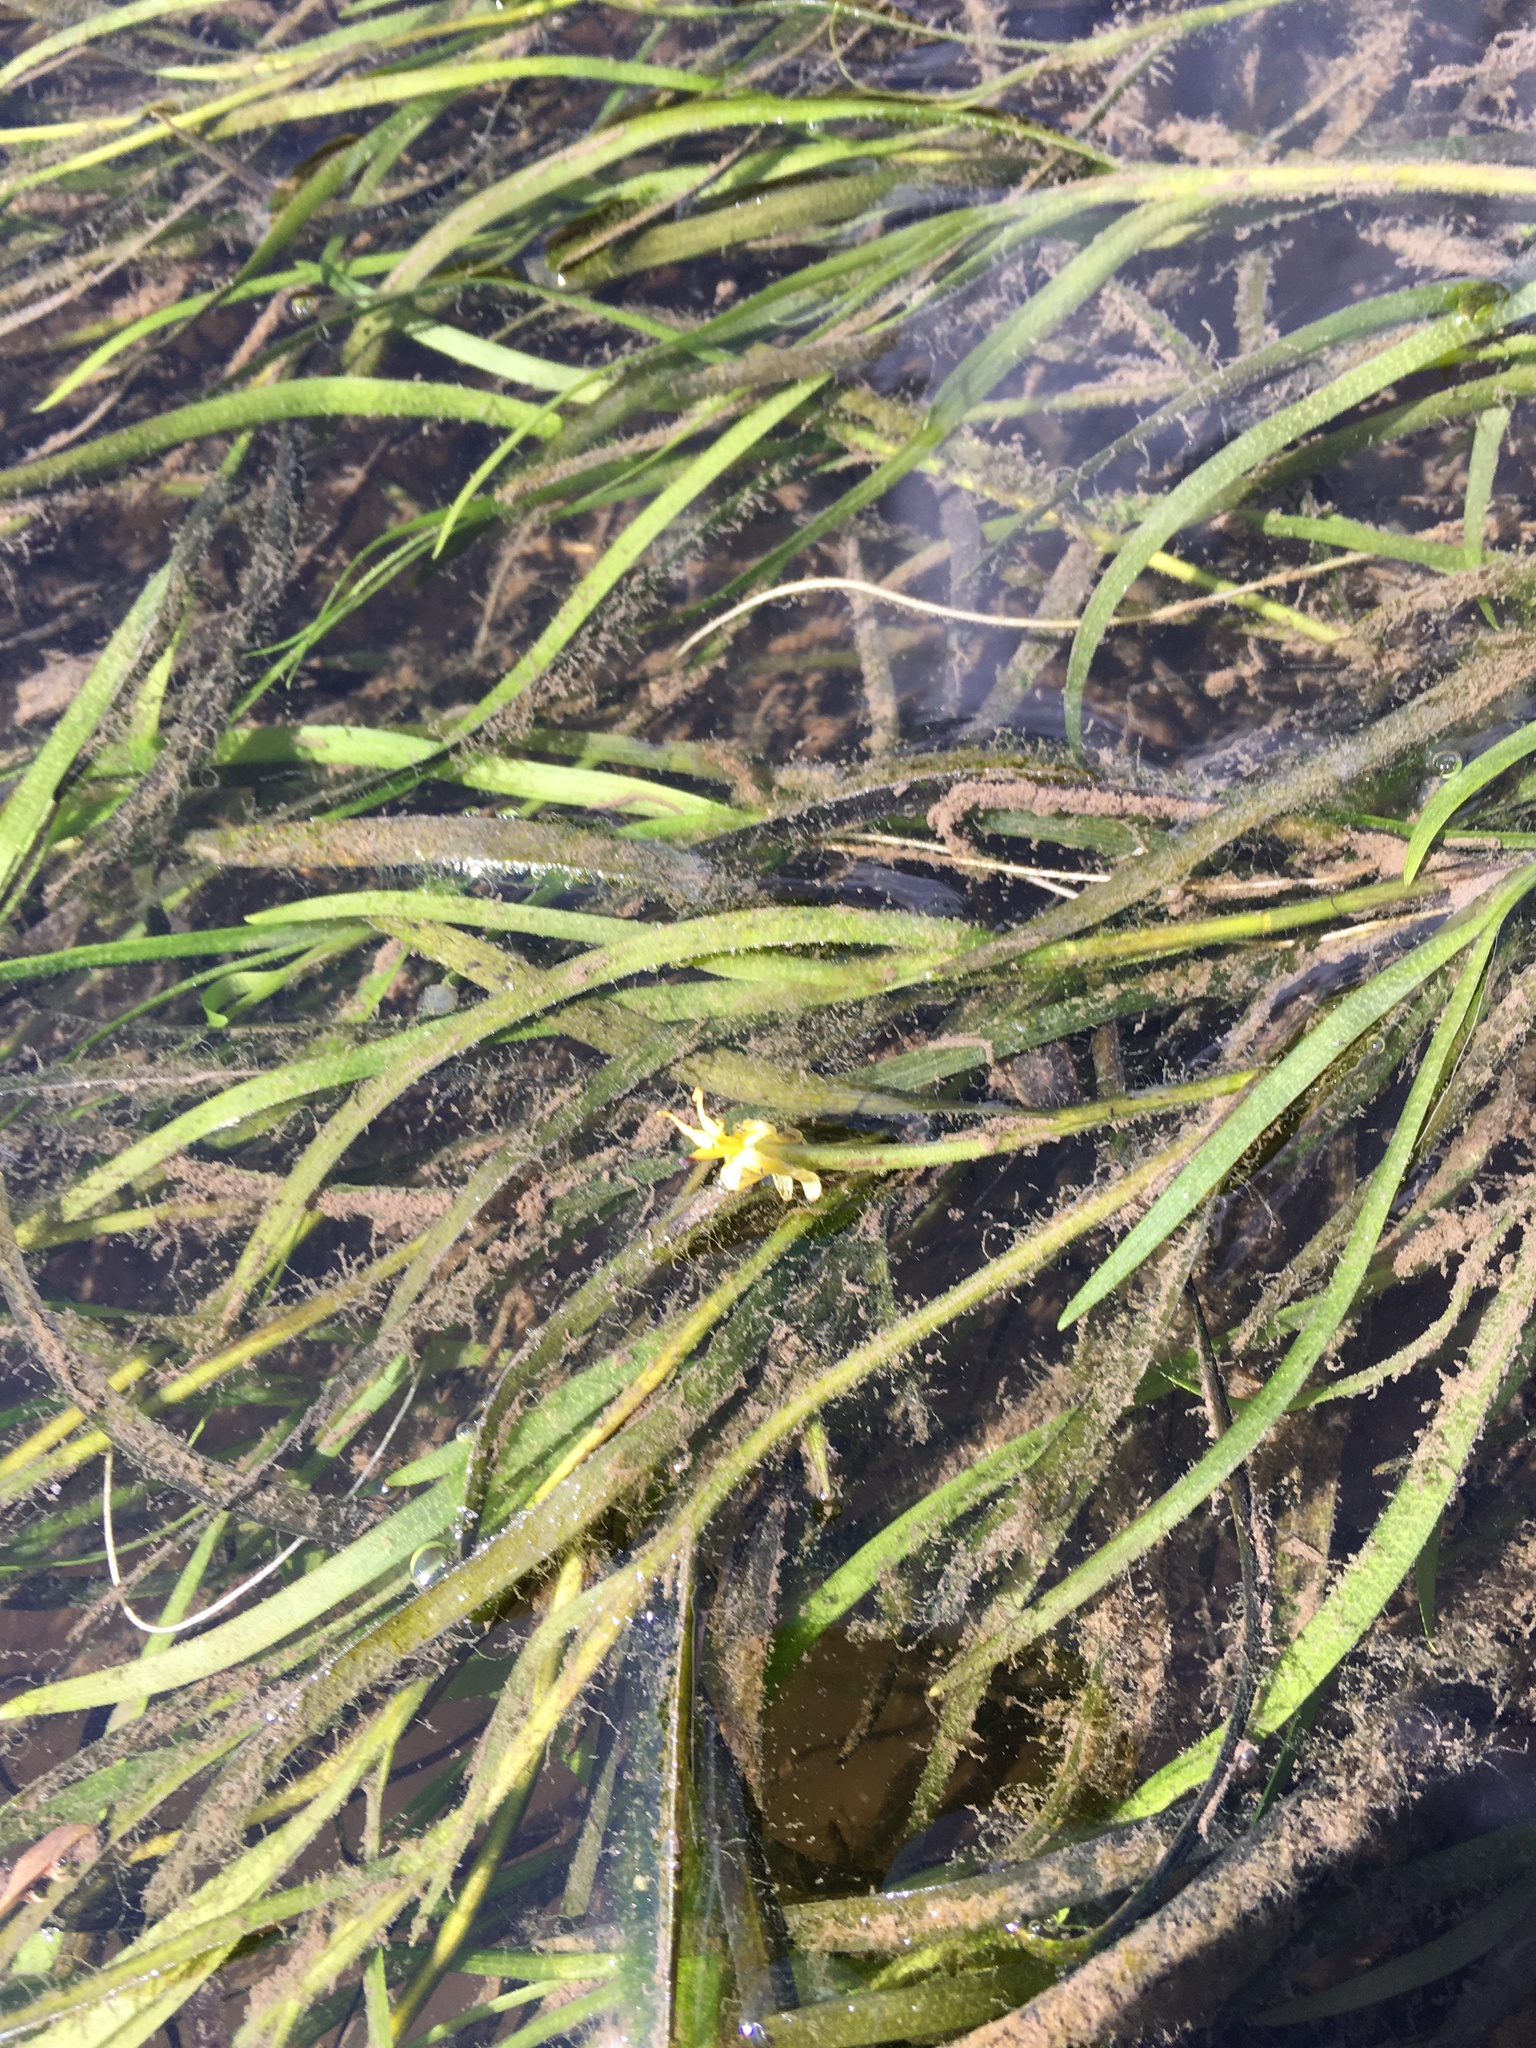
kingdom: Plantae
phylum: Tracheophyta
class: Liliopsida
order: Commelinales
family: Pontederiaceae
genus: Heteranthera
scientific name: Heteranthera dubia
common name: Grass-leaved mud plantain
